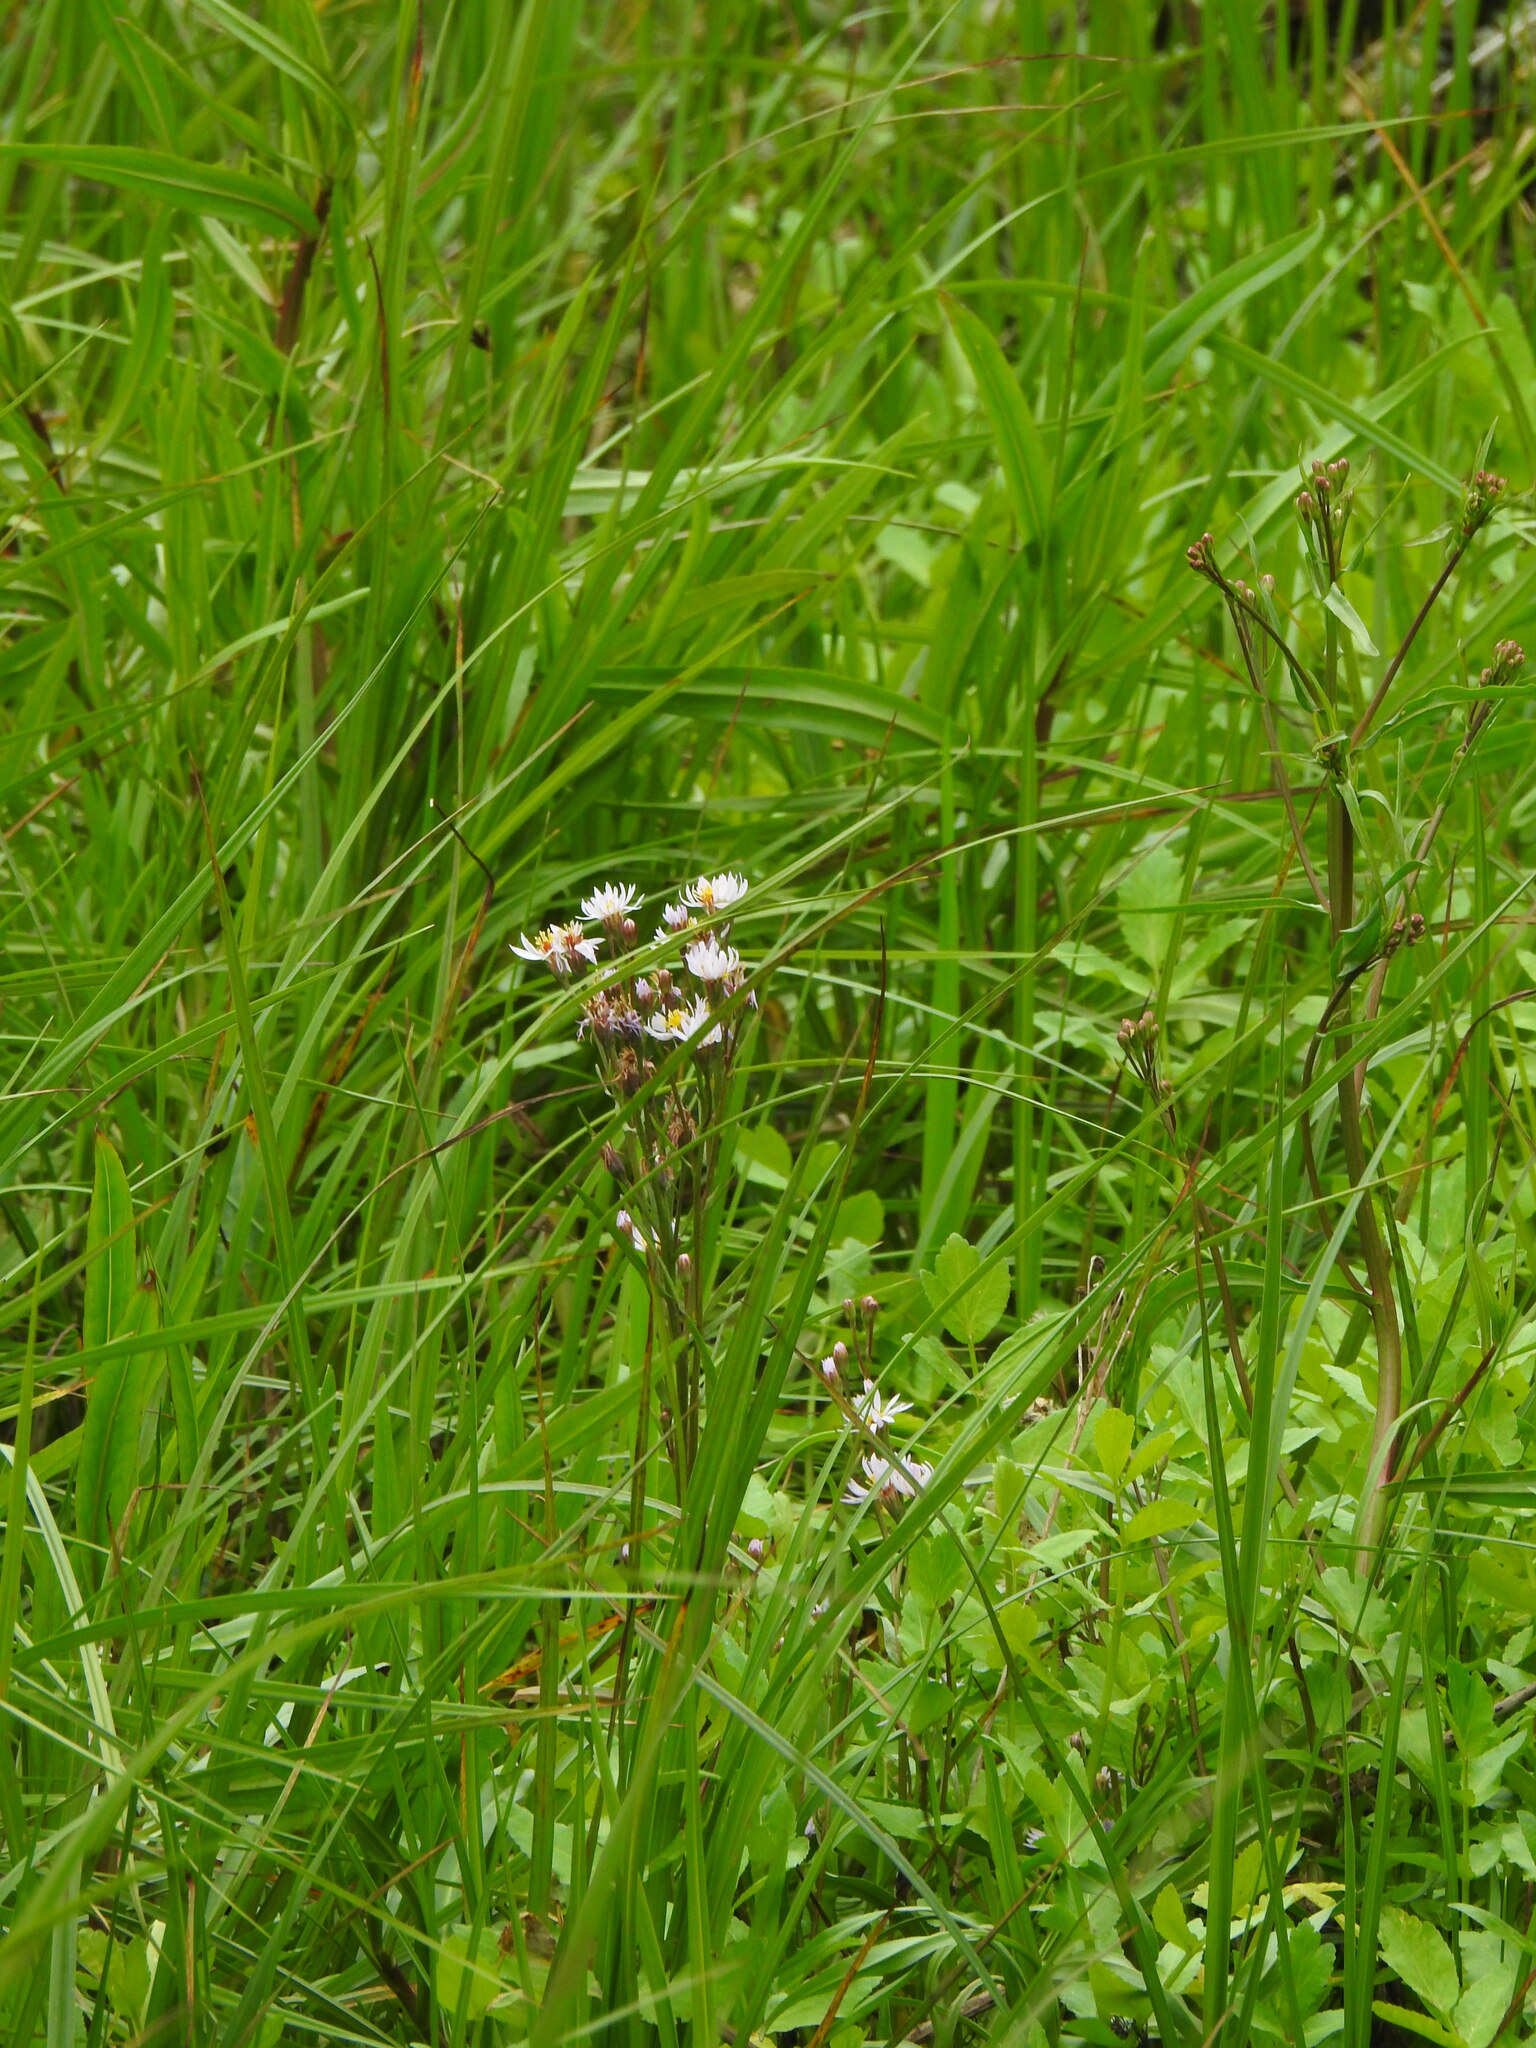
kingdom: Plantae
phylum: Tracheophyta
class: Magnoliopsida
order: Asterales
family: Asteraceae
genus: Tripolium
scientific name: Tripolium pannonicum
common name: Sea aster
